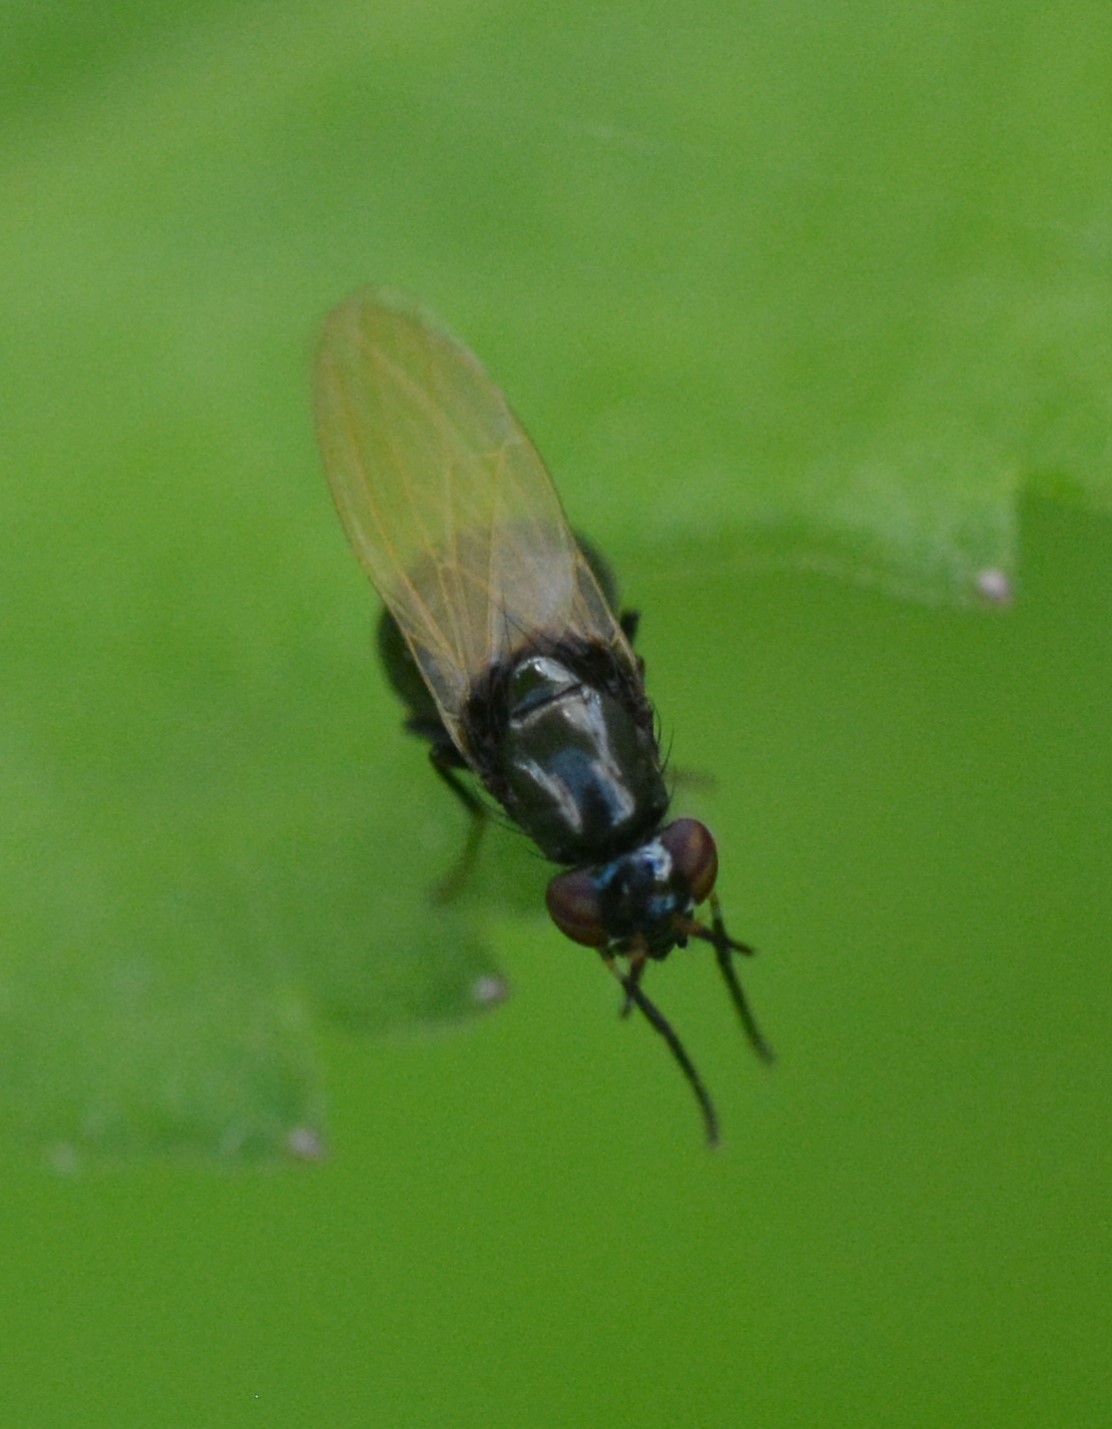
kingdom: Animalia
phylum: Arthropoda
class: Insecta
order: Diptera
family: Lauxaniidae
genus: Lauxania
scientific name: Lauxania shewelli
